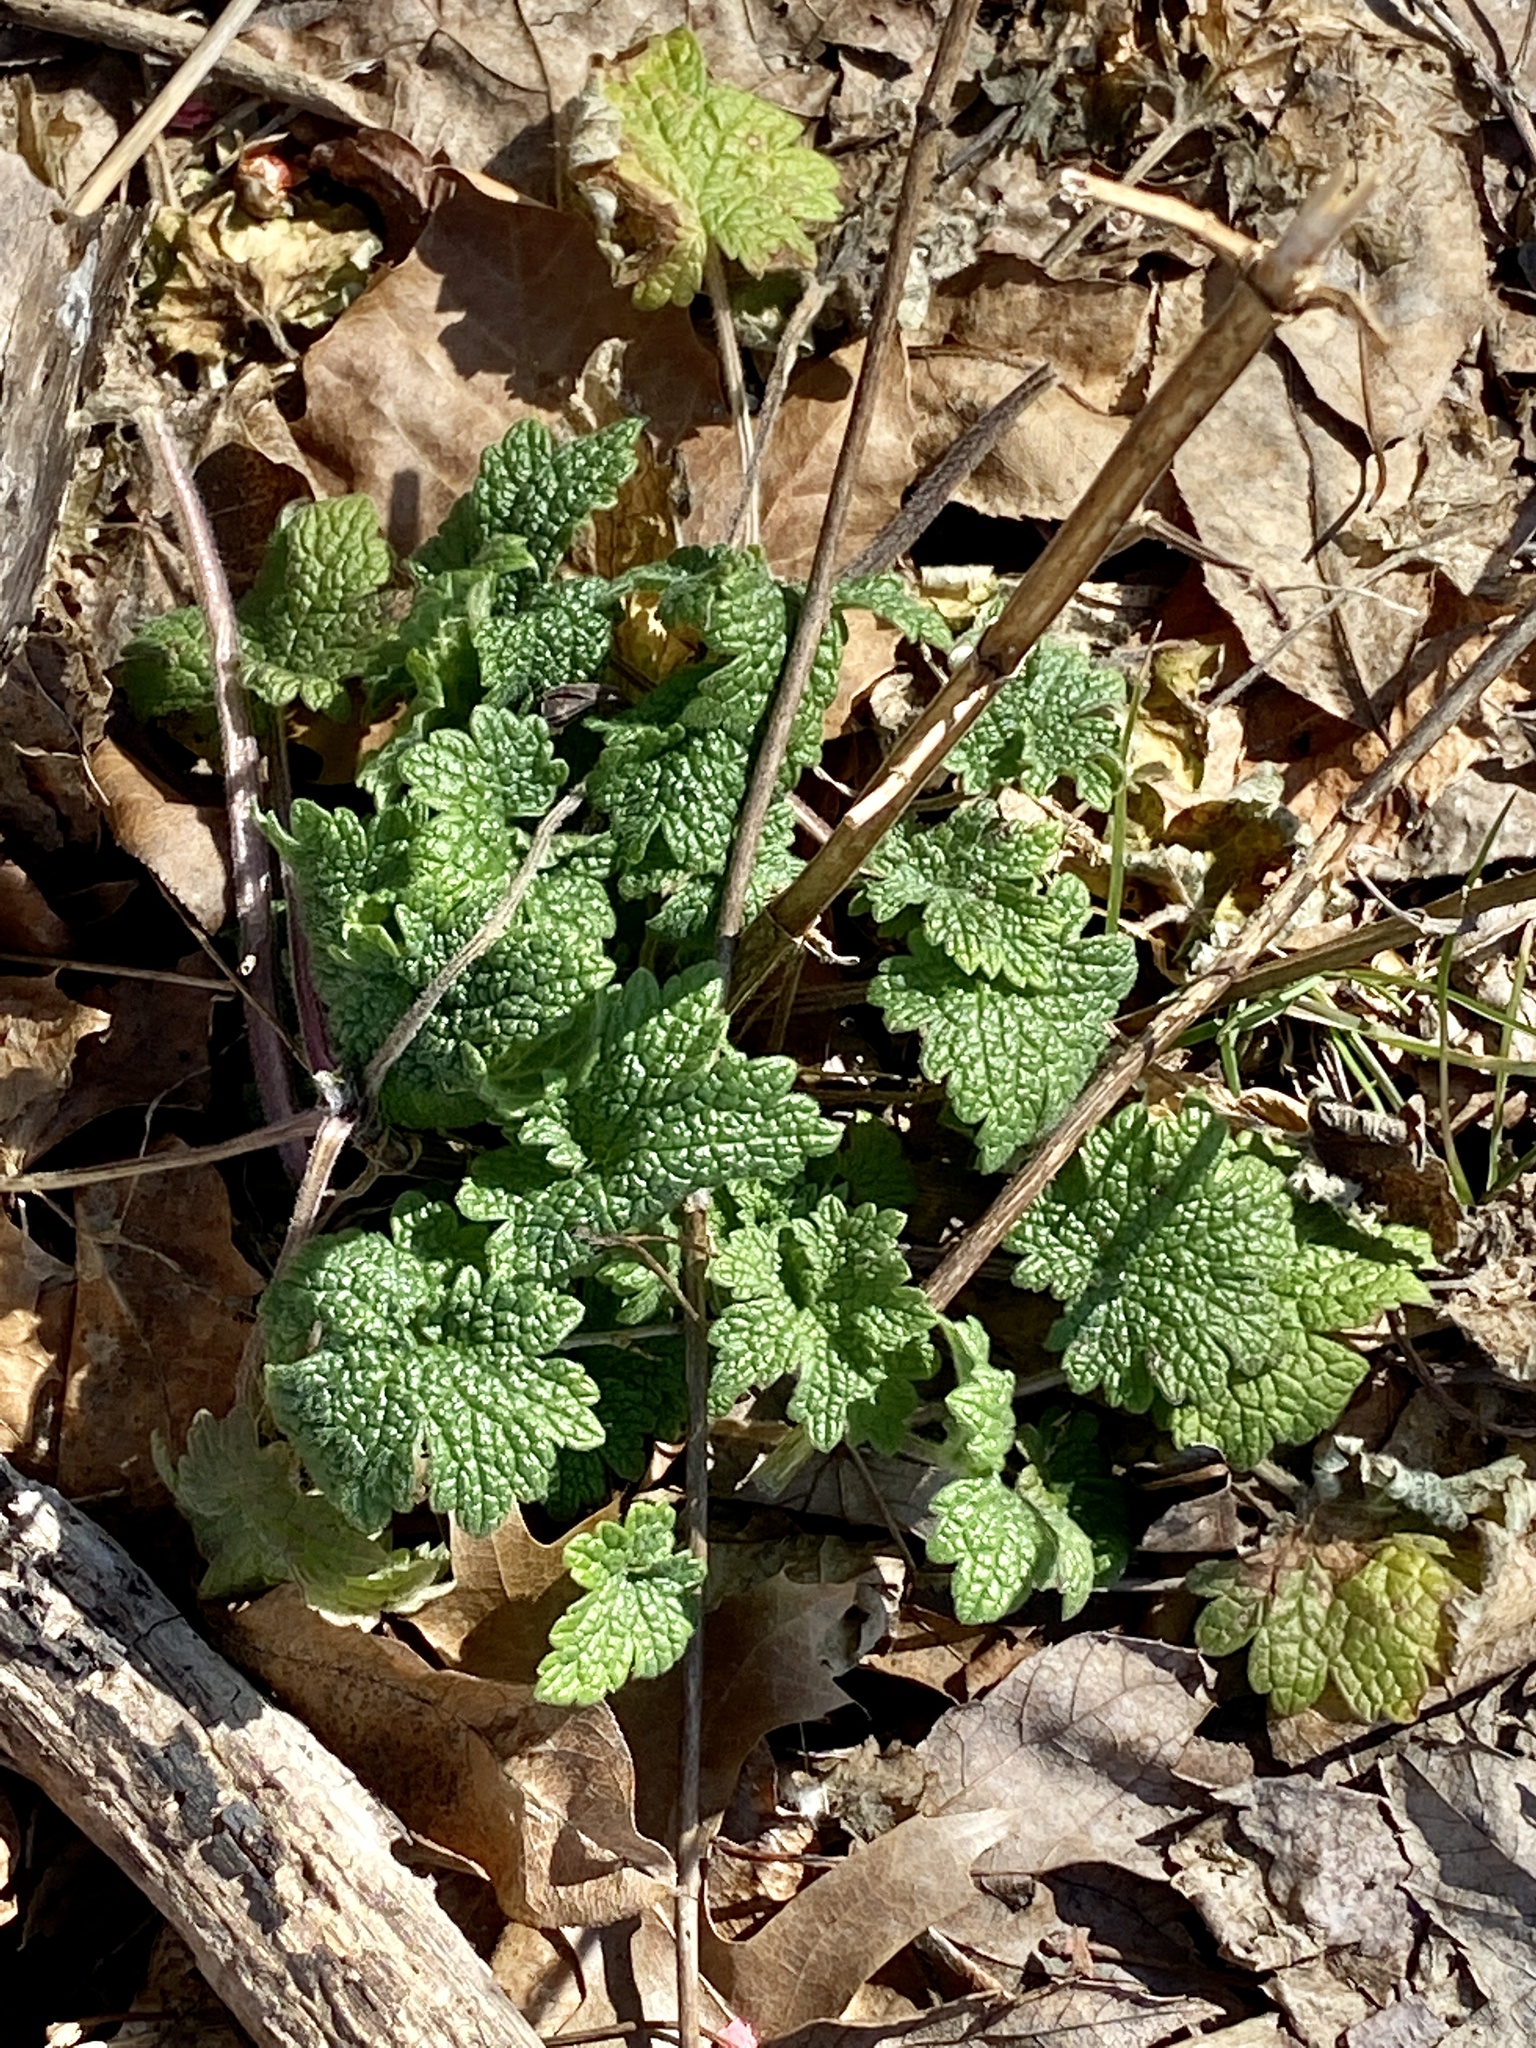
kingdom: Plantae
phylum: Tracheophyta
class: Magnoliopsida
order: Lamiales
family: Lamiaceae
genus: Leonurus
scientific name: Leonurus cardiaca
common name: Motherwort
